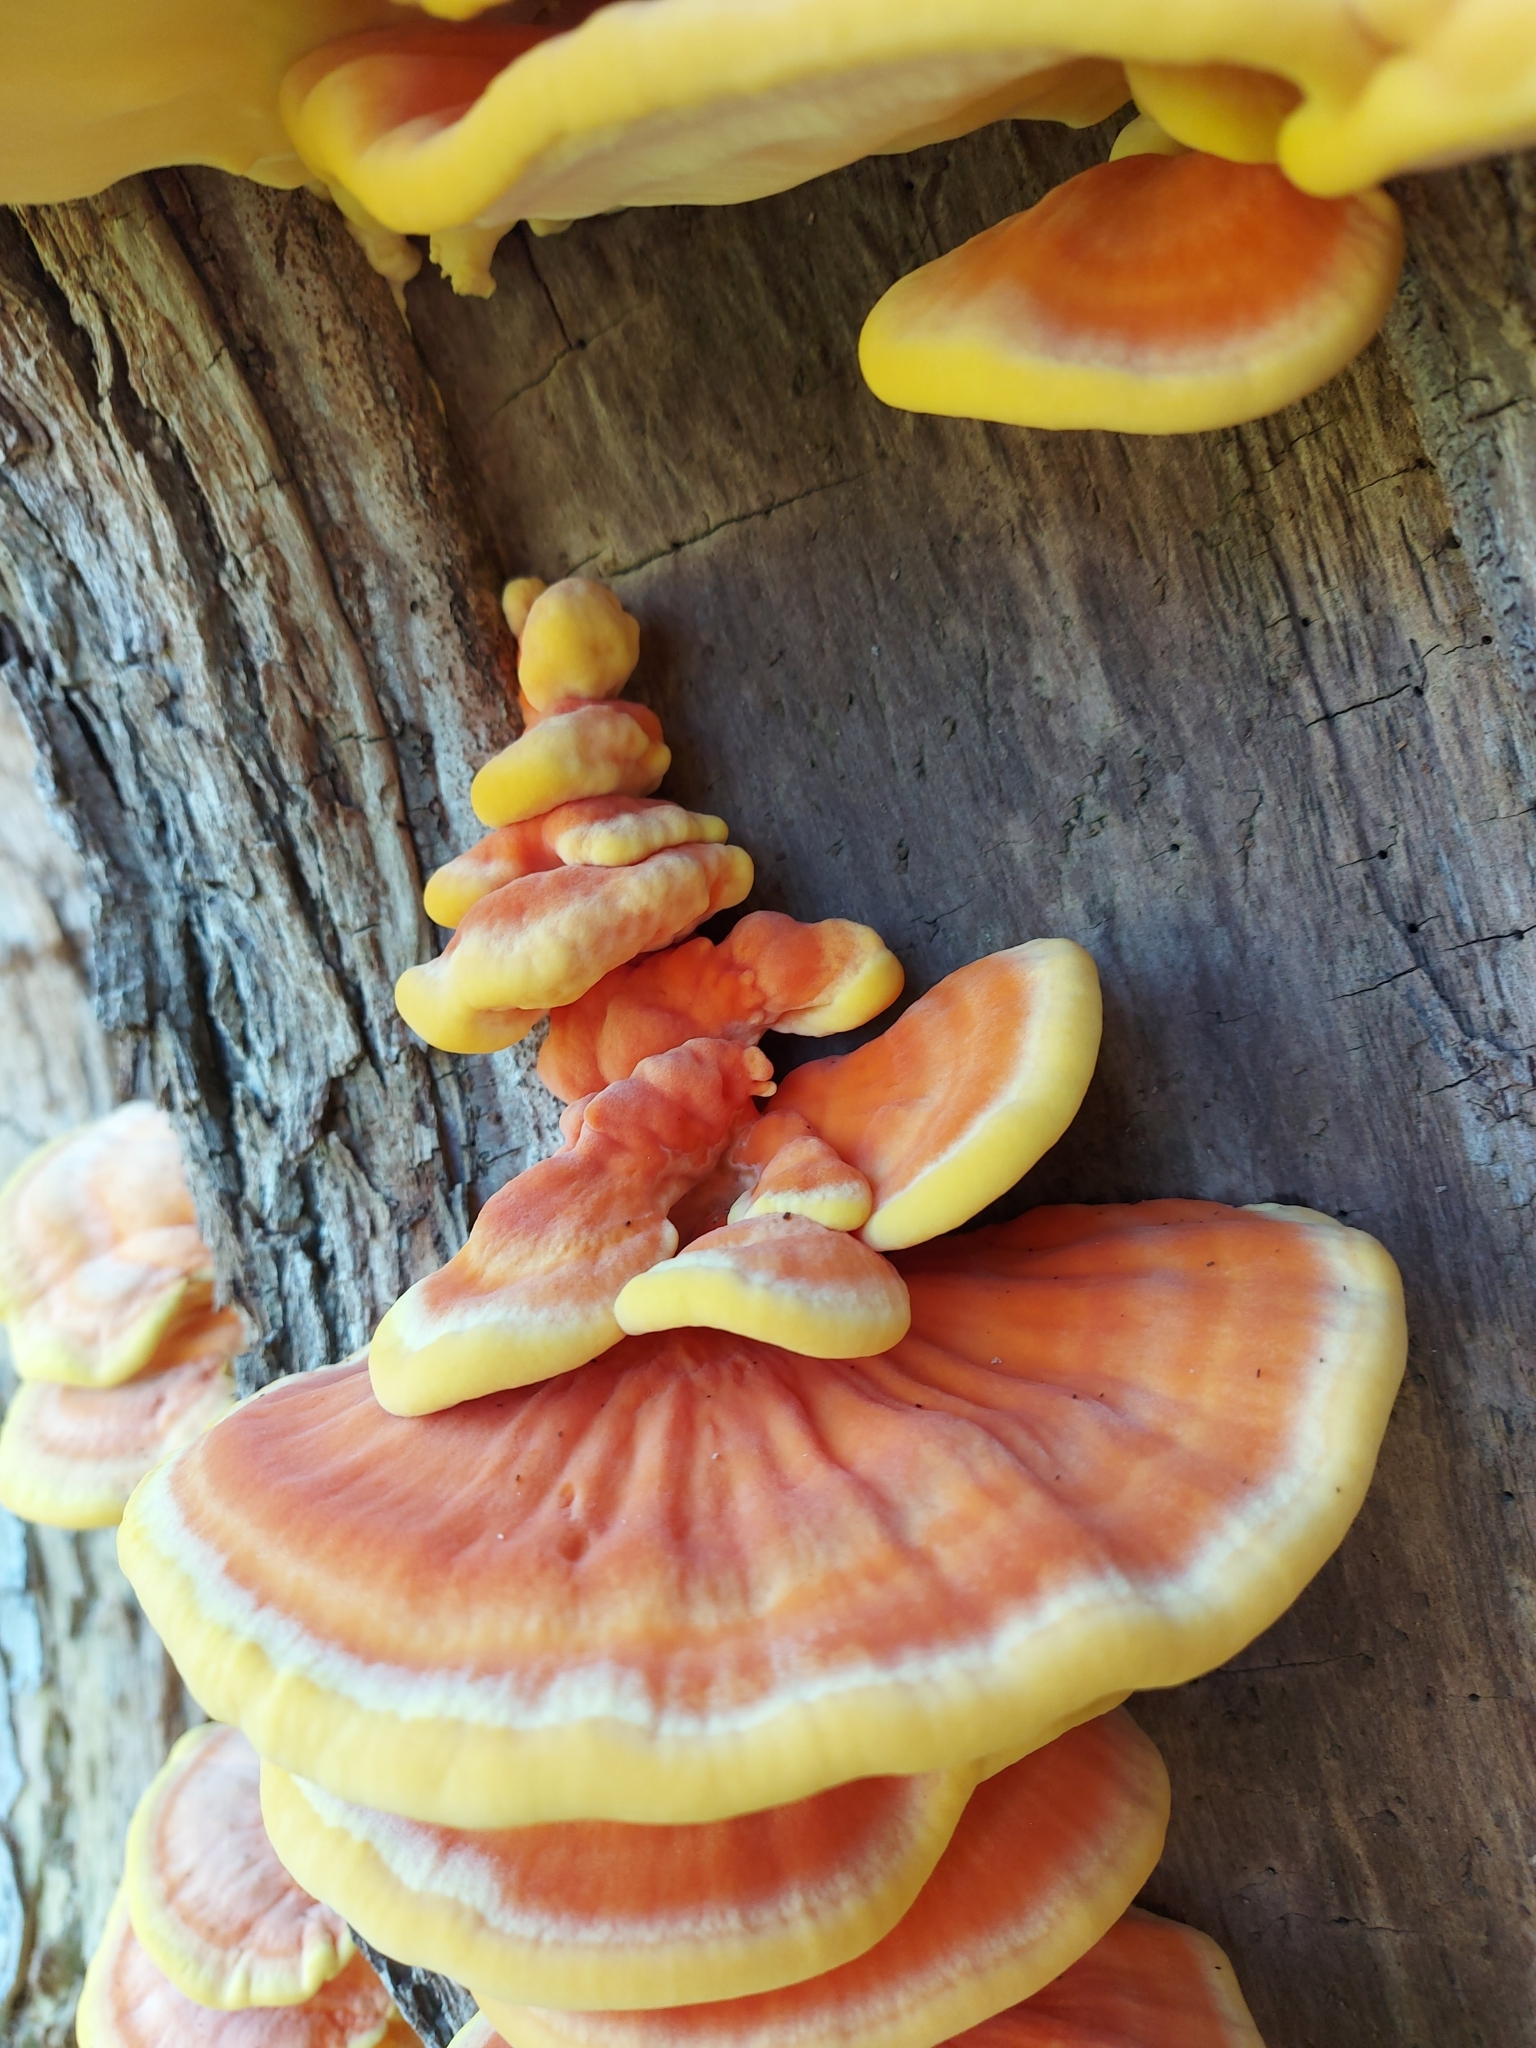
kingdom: Fungi
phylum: Basidiomycota
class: Agaricomycetes
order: Polyporales
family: Laetiporaceae
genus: Laetiporus
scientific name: Laetiporus sulphureus
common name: Chicken of the woods
